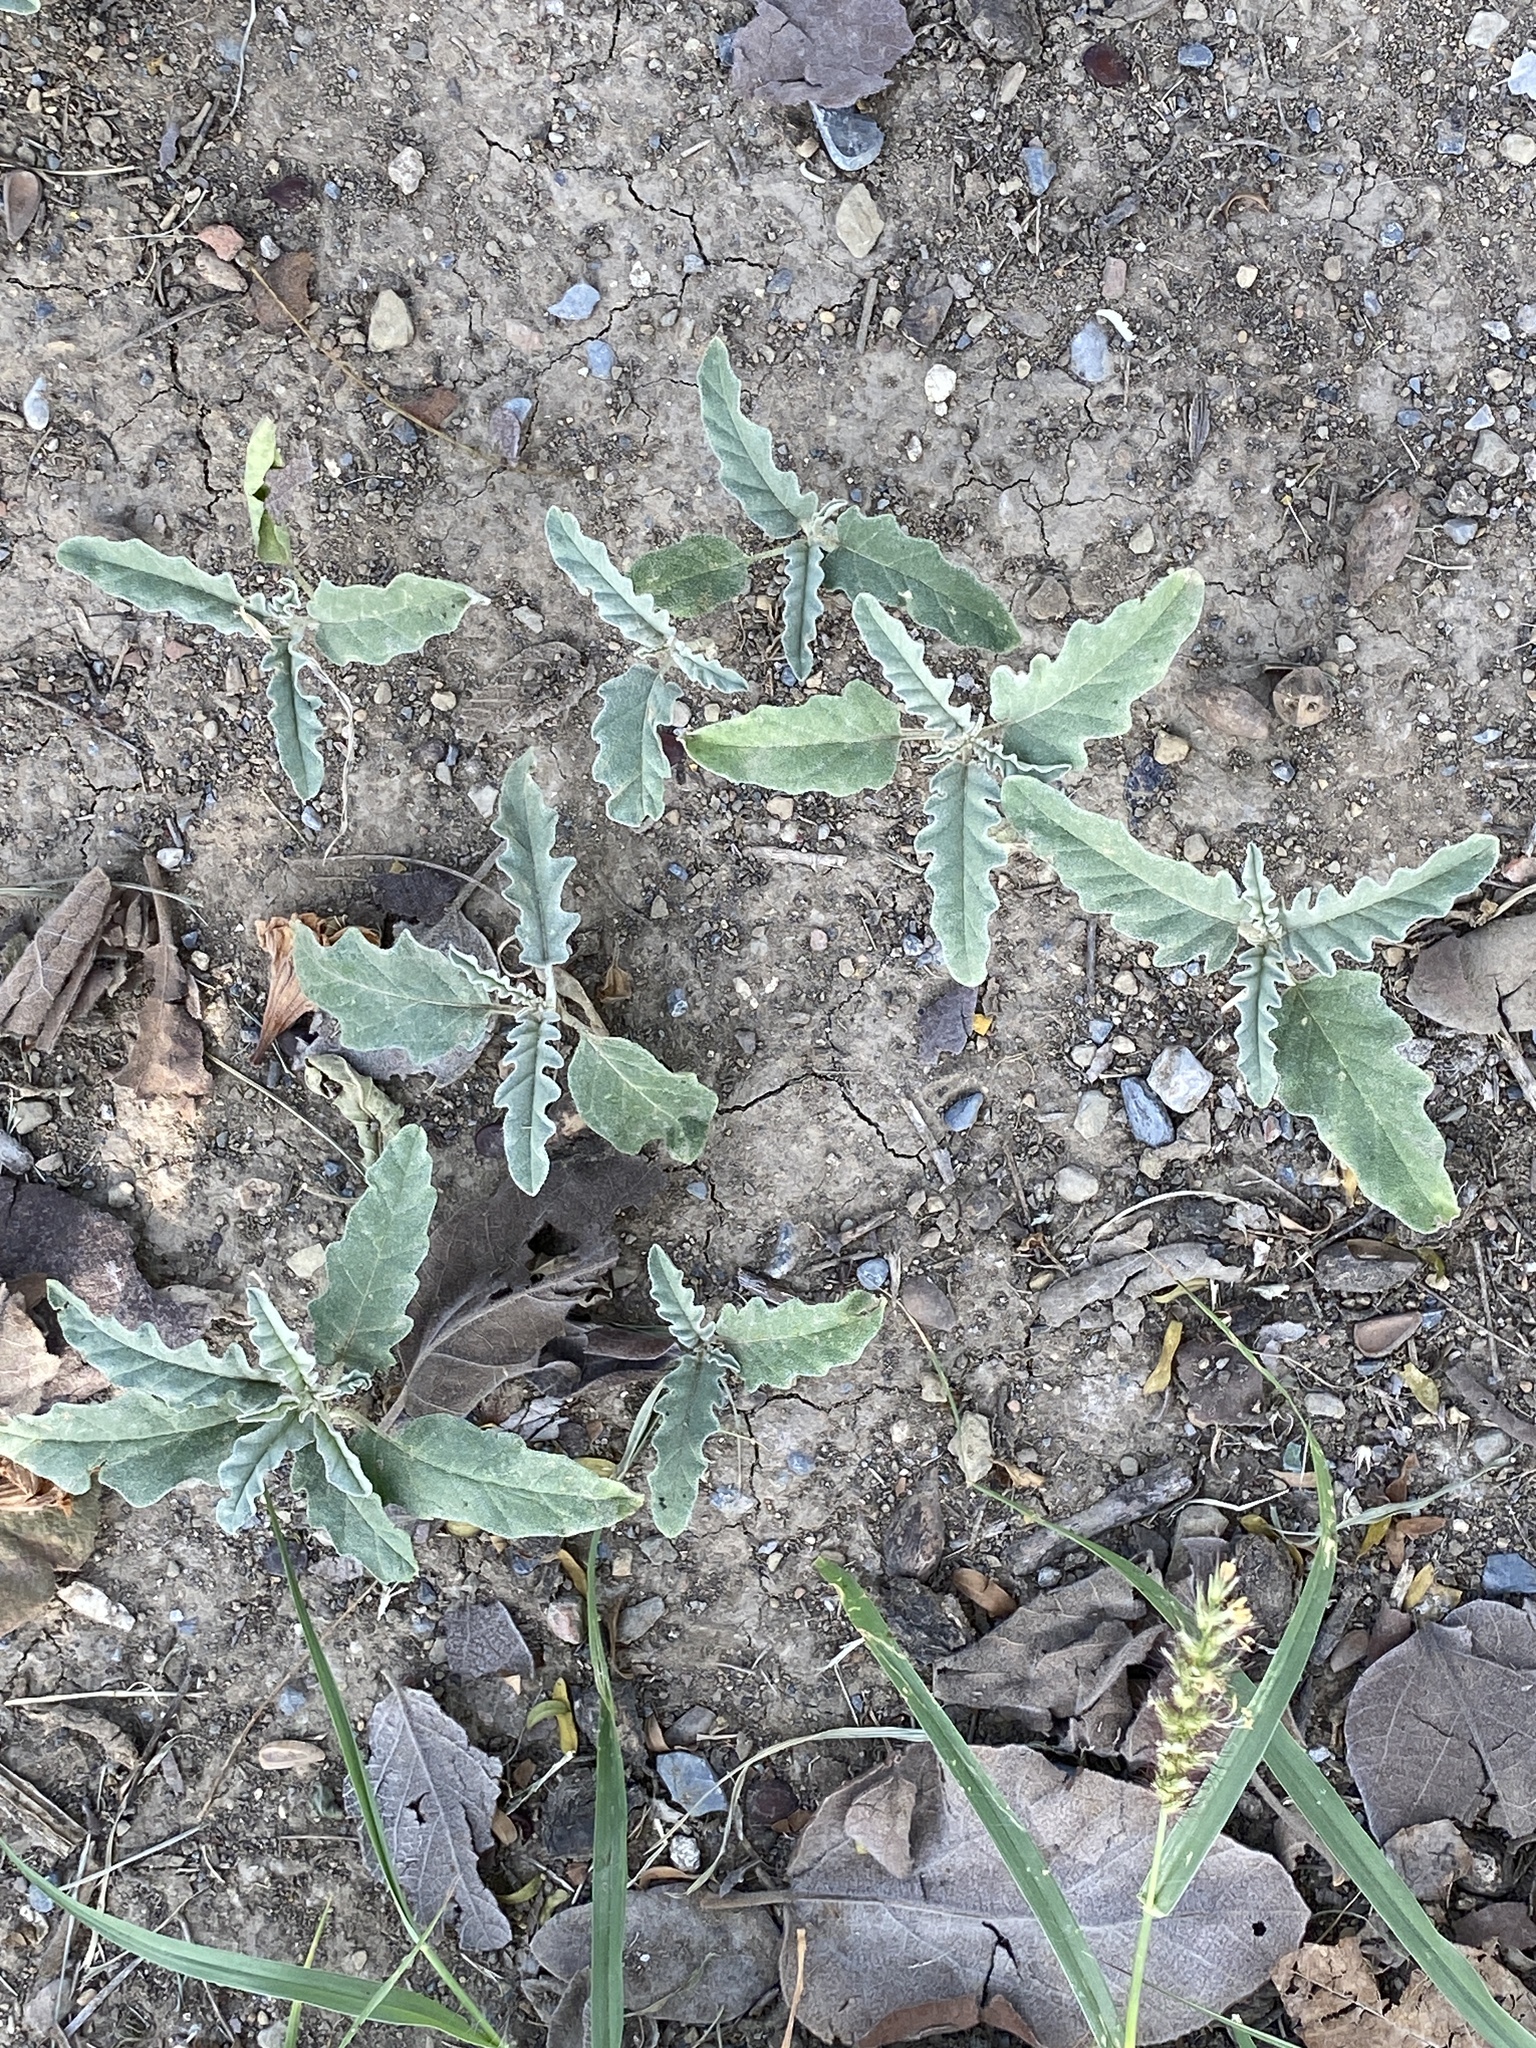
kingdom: Plantae
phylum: Tracheophyta
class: Magnoliopsida
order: Solanales
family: Solanaceae
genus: Solanum
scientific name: Solanum elaeagnifolium
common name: Silverleaf nightshade
